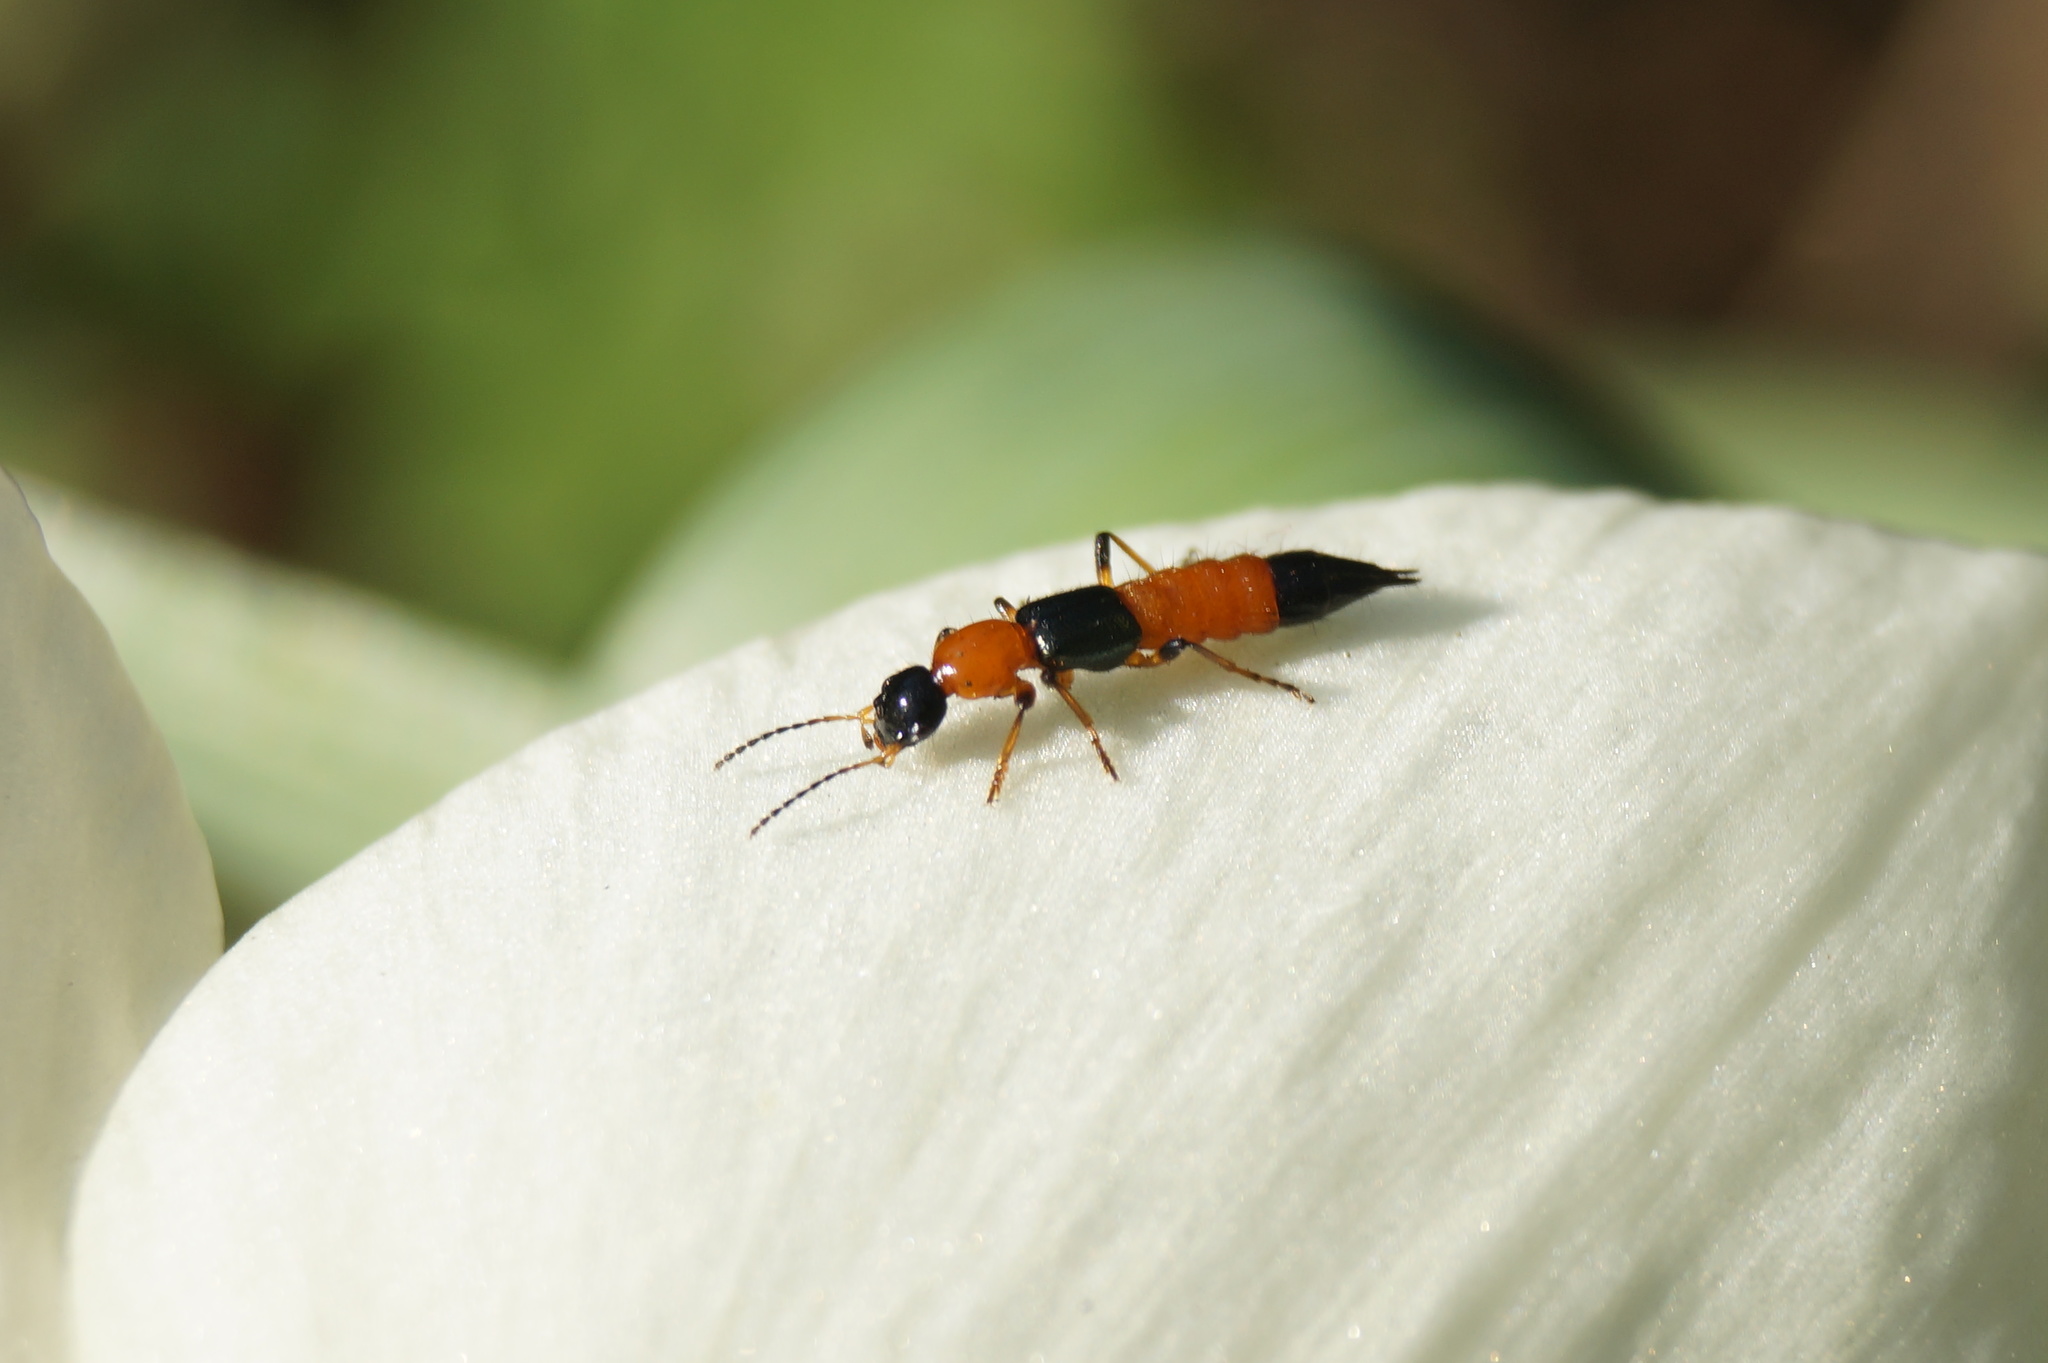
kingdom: Animalia
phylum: Arthropoda
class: Insecta
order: Coleoptera
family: Staphylinidae
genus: Paederus
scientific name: Paederus riparius
